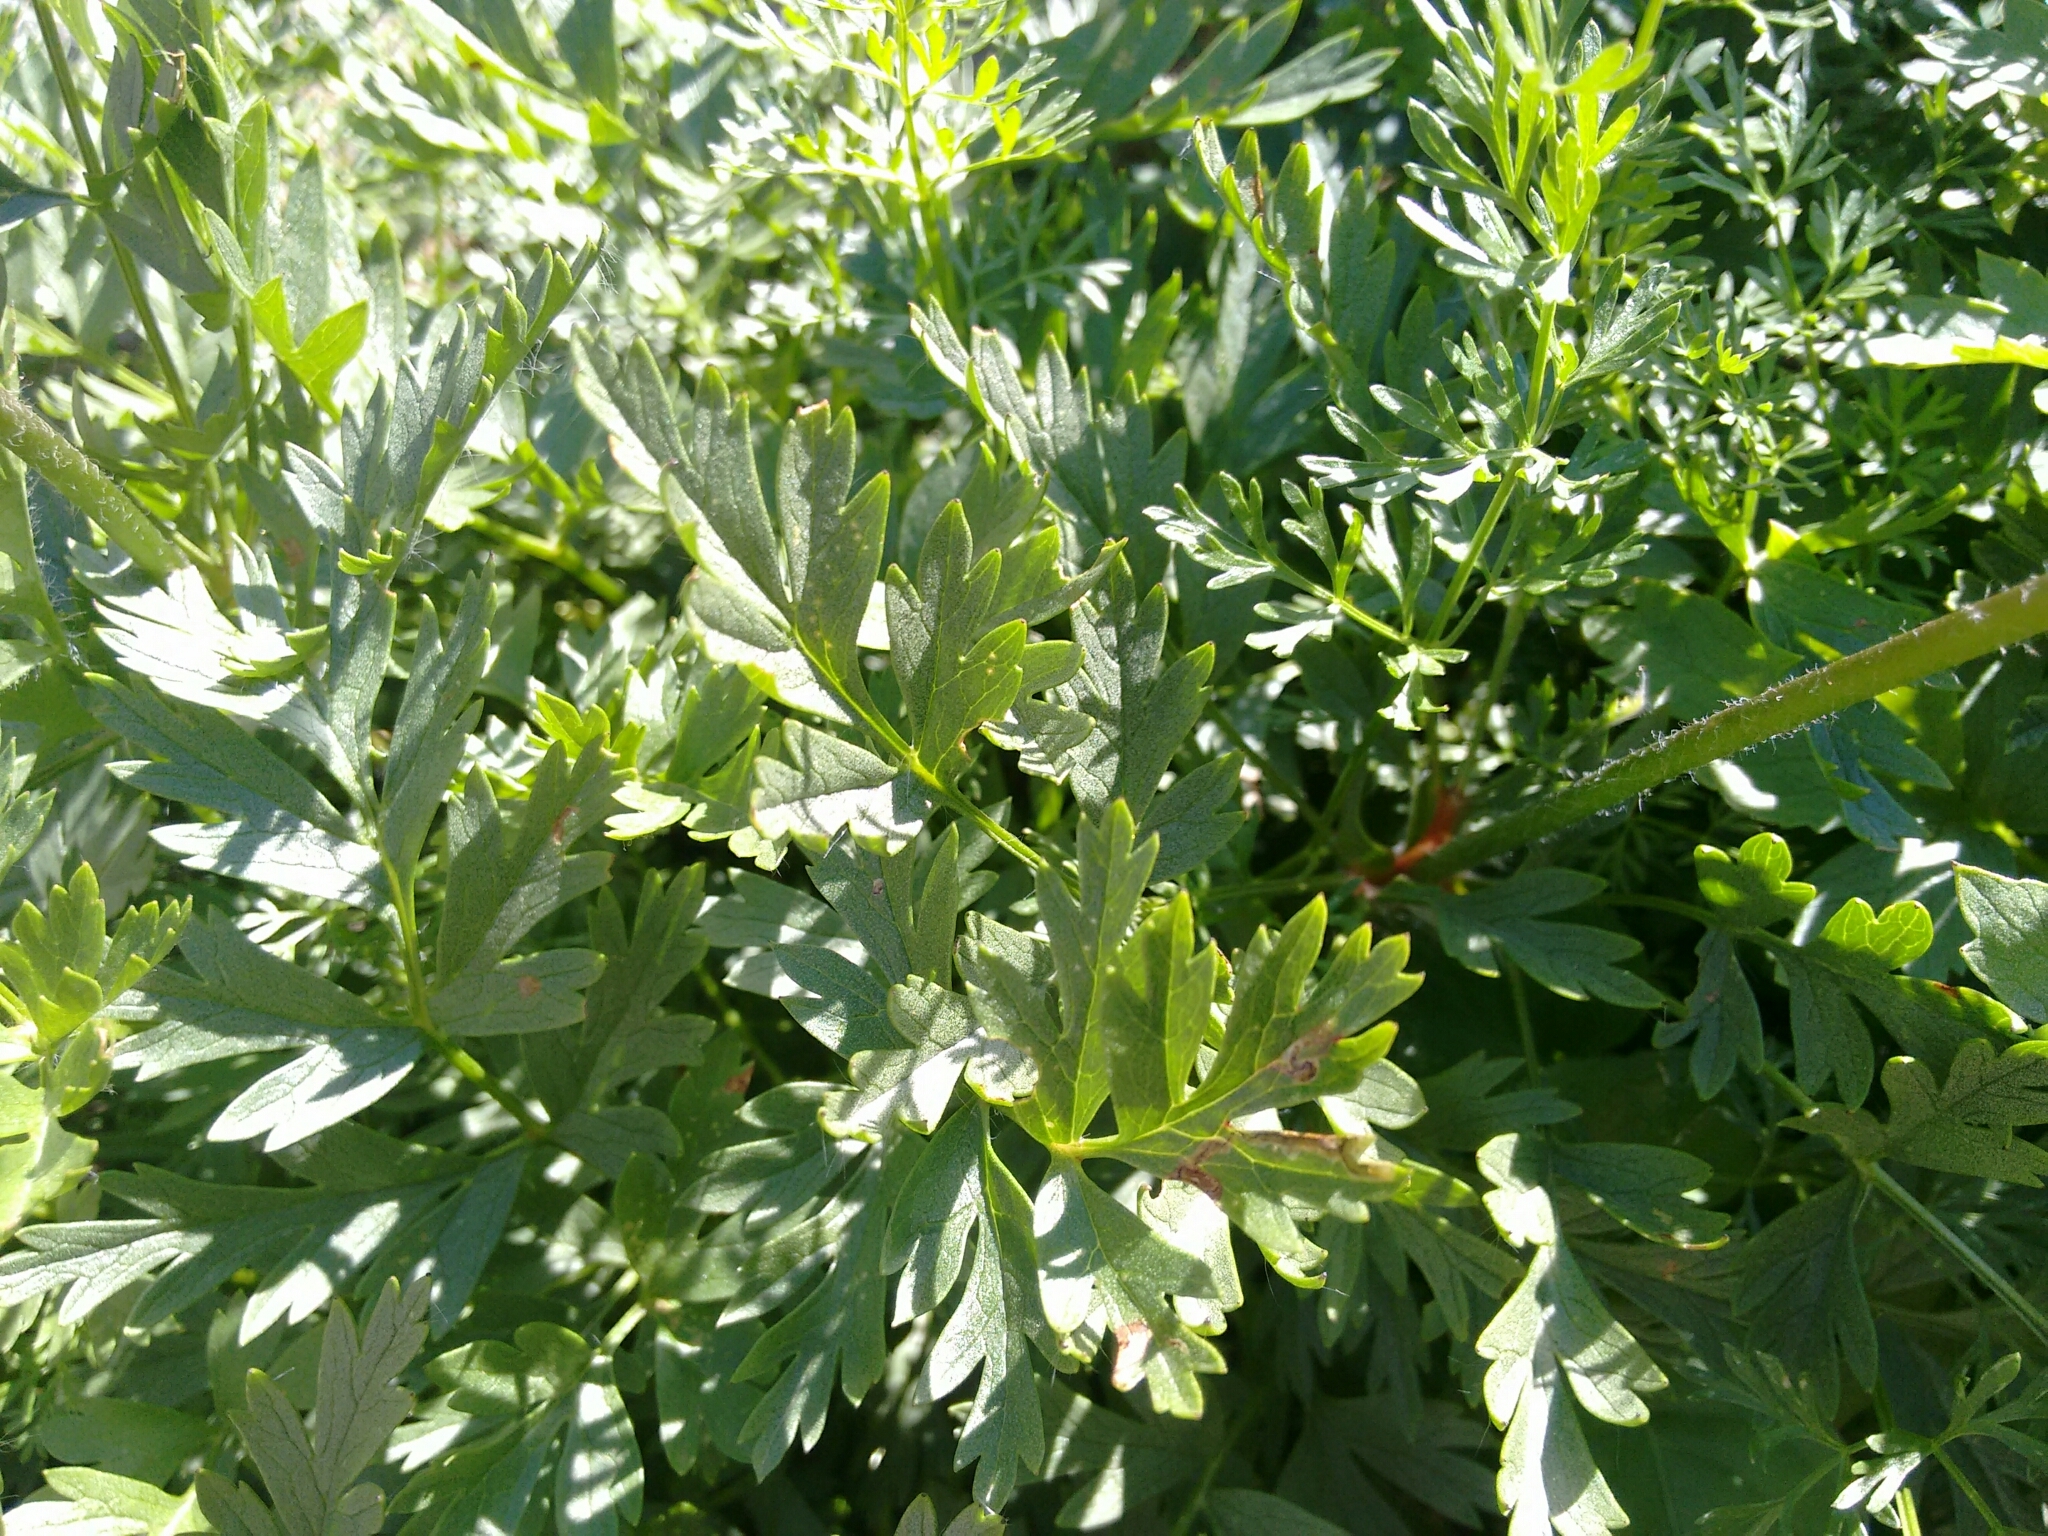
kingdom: Plantae
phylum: Tracheophyta
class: Magnoliopsida
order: Ranunculales
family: Ranunculaceae
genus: Pulsatilla
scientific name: Pulsatilla alpina
